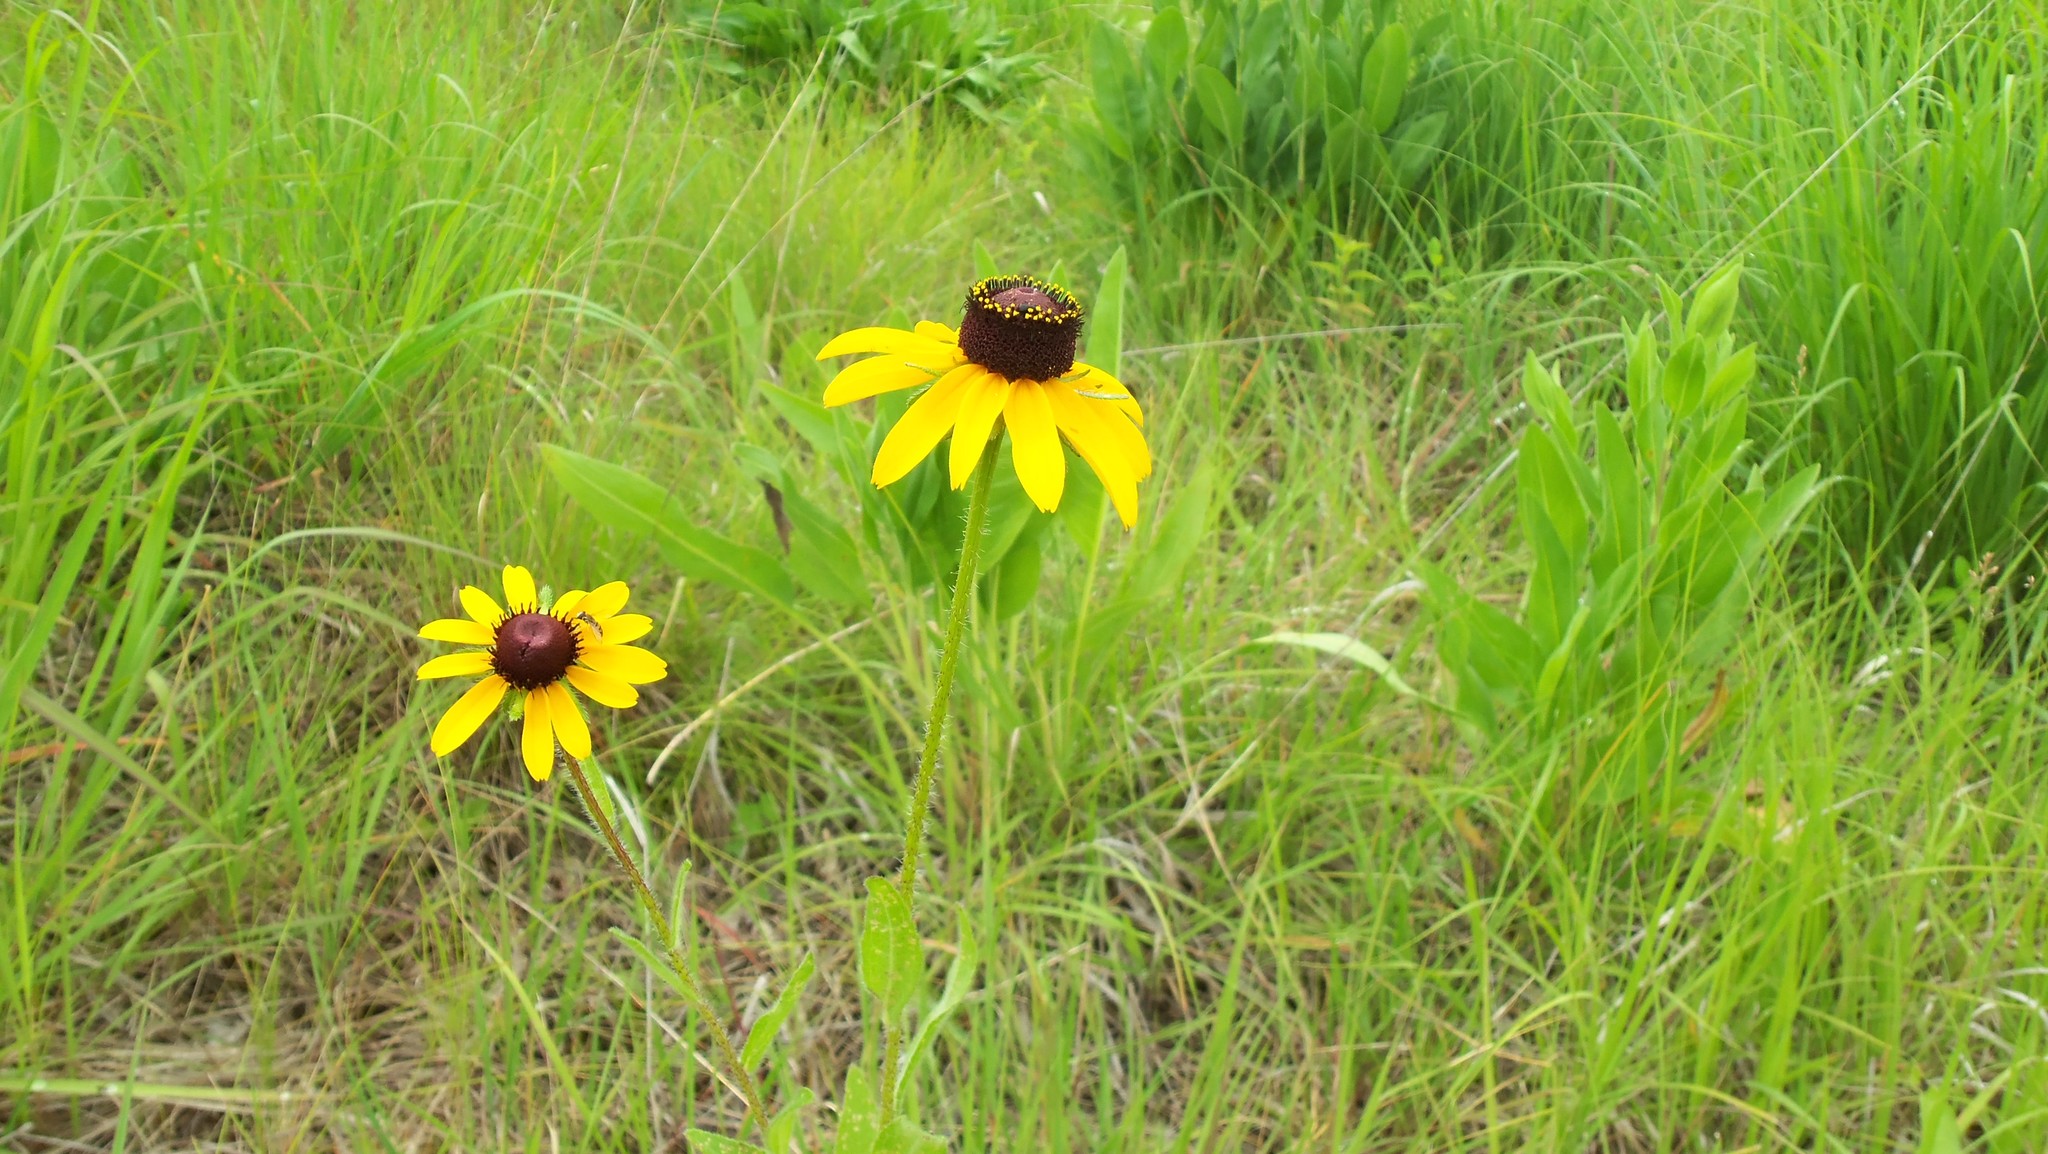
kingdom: Plantae
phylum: Tracheophyta
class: Magnoliopsida
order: Asterales
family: Asteraceae
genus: Rudbeckia
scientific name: Rudbeckia hirta
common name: Black-eyed-susan
